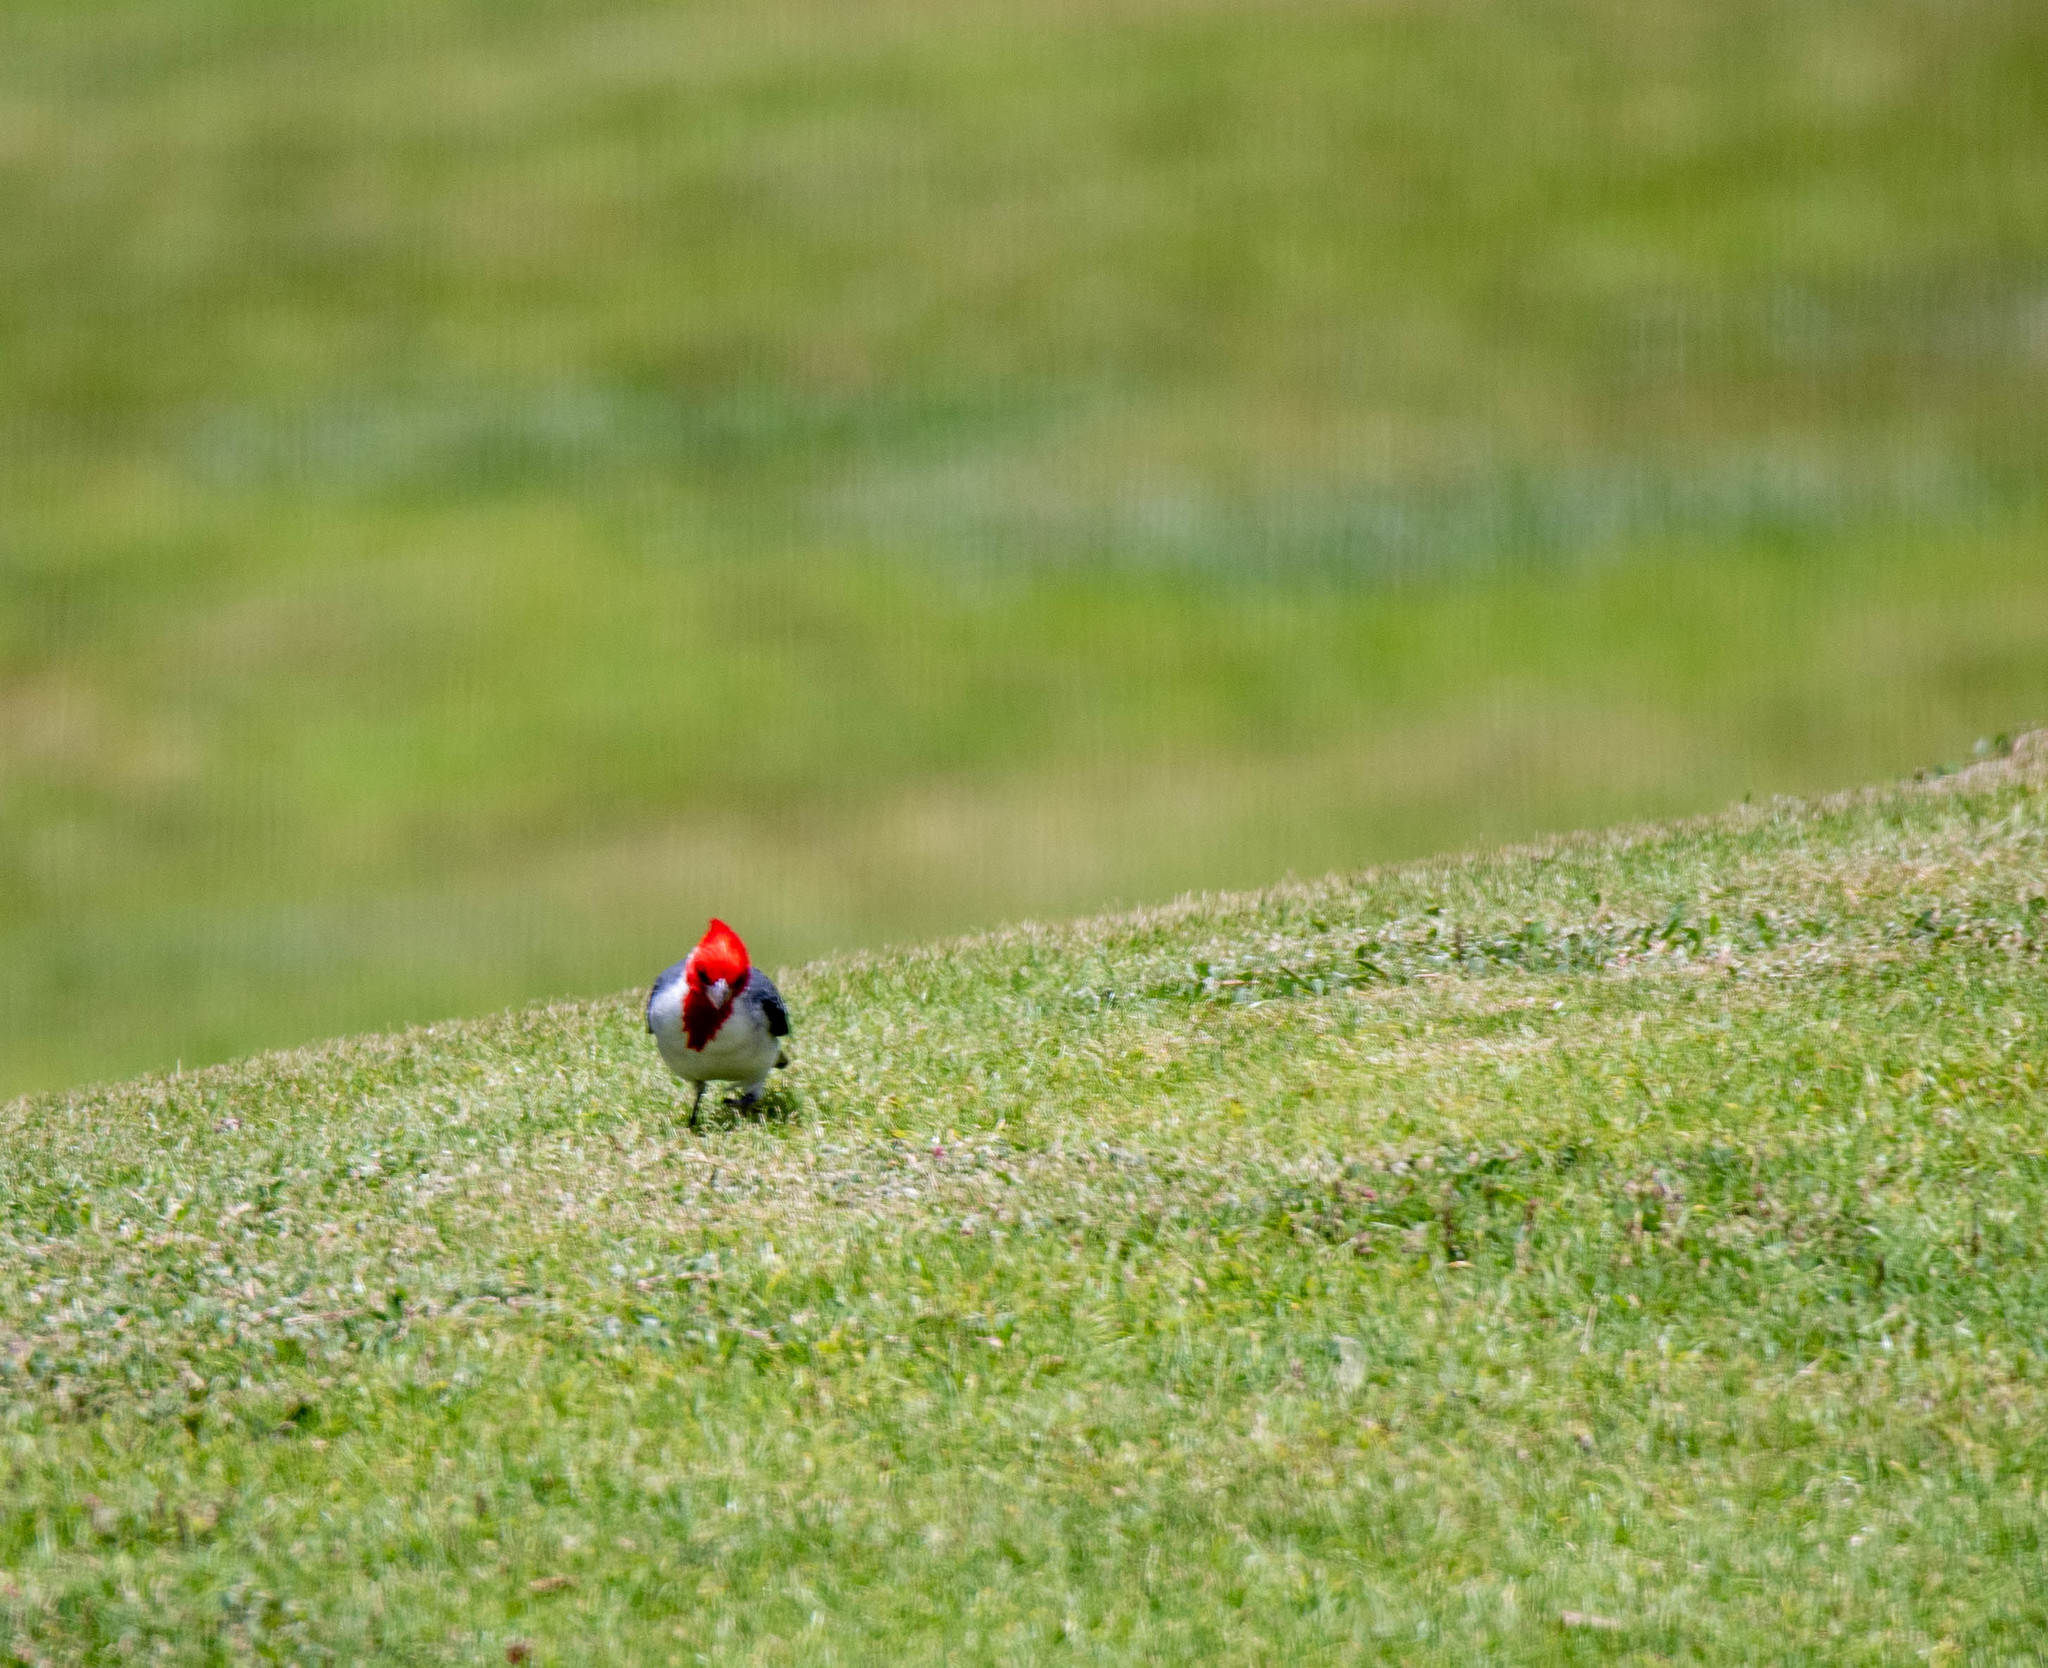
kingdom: Animalia
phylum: Chordata
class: Aves
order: Passeriformes
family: Thraupidae
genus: Paroaria
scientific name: Paroaria coronata
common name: Red-crested cardinal
